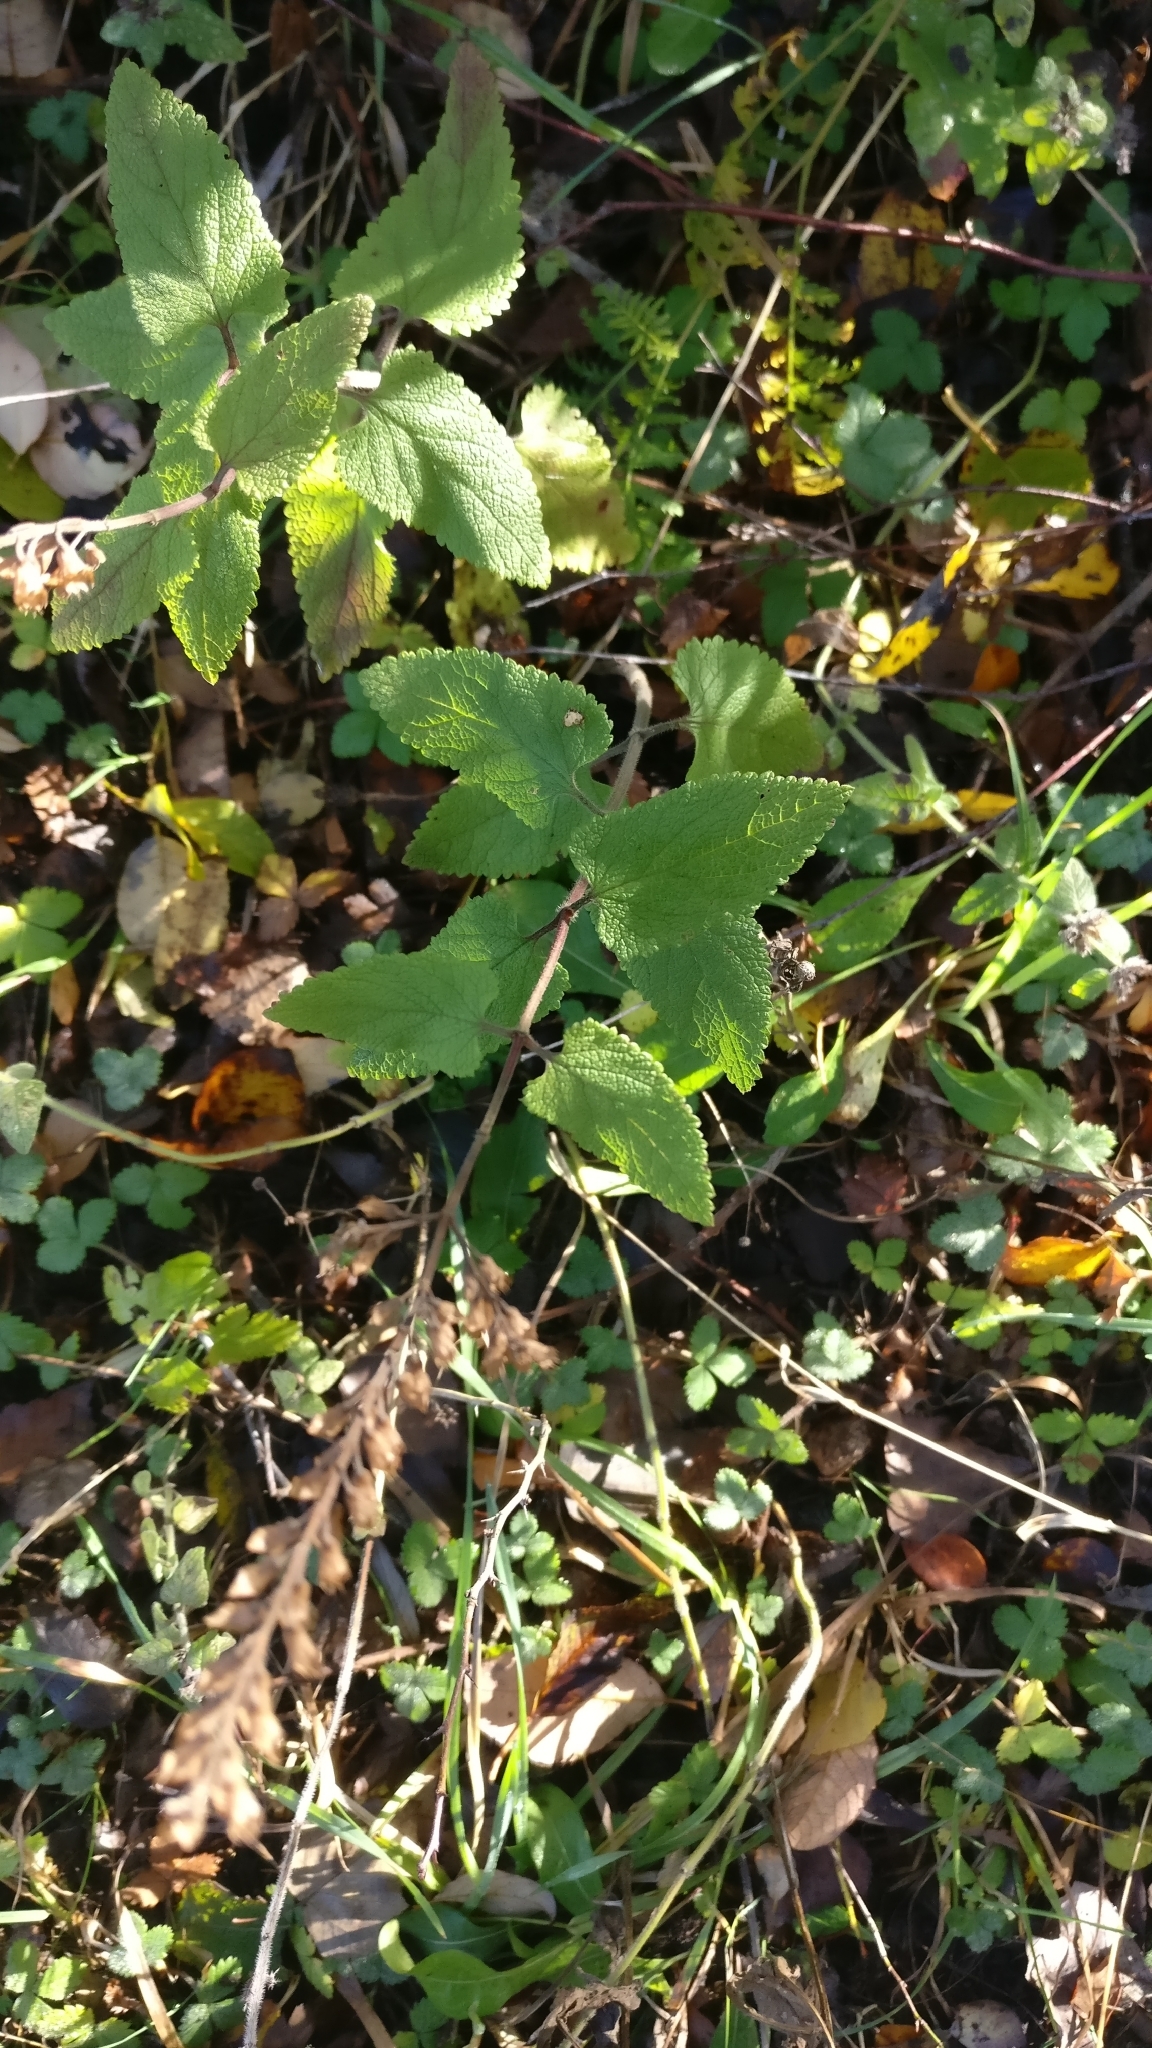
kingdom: Plantae
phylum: Tracheophyta
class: Magnoliopsida
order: Lamiales
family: Lamiaceae
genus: Teucrium
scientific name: Teucrium scorodonia
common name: Woodland germander
